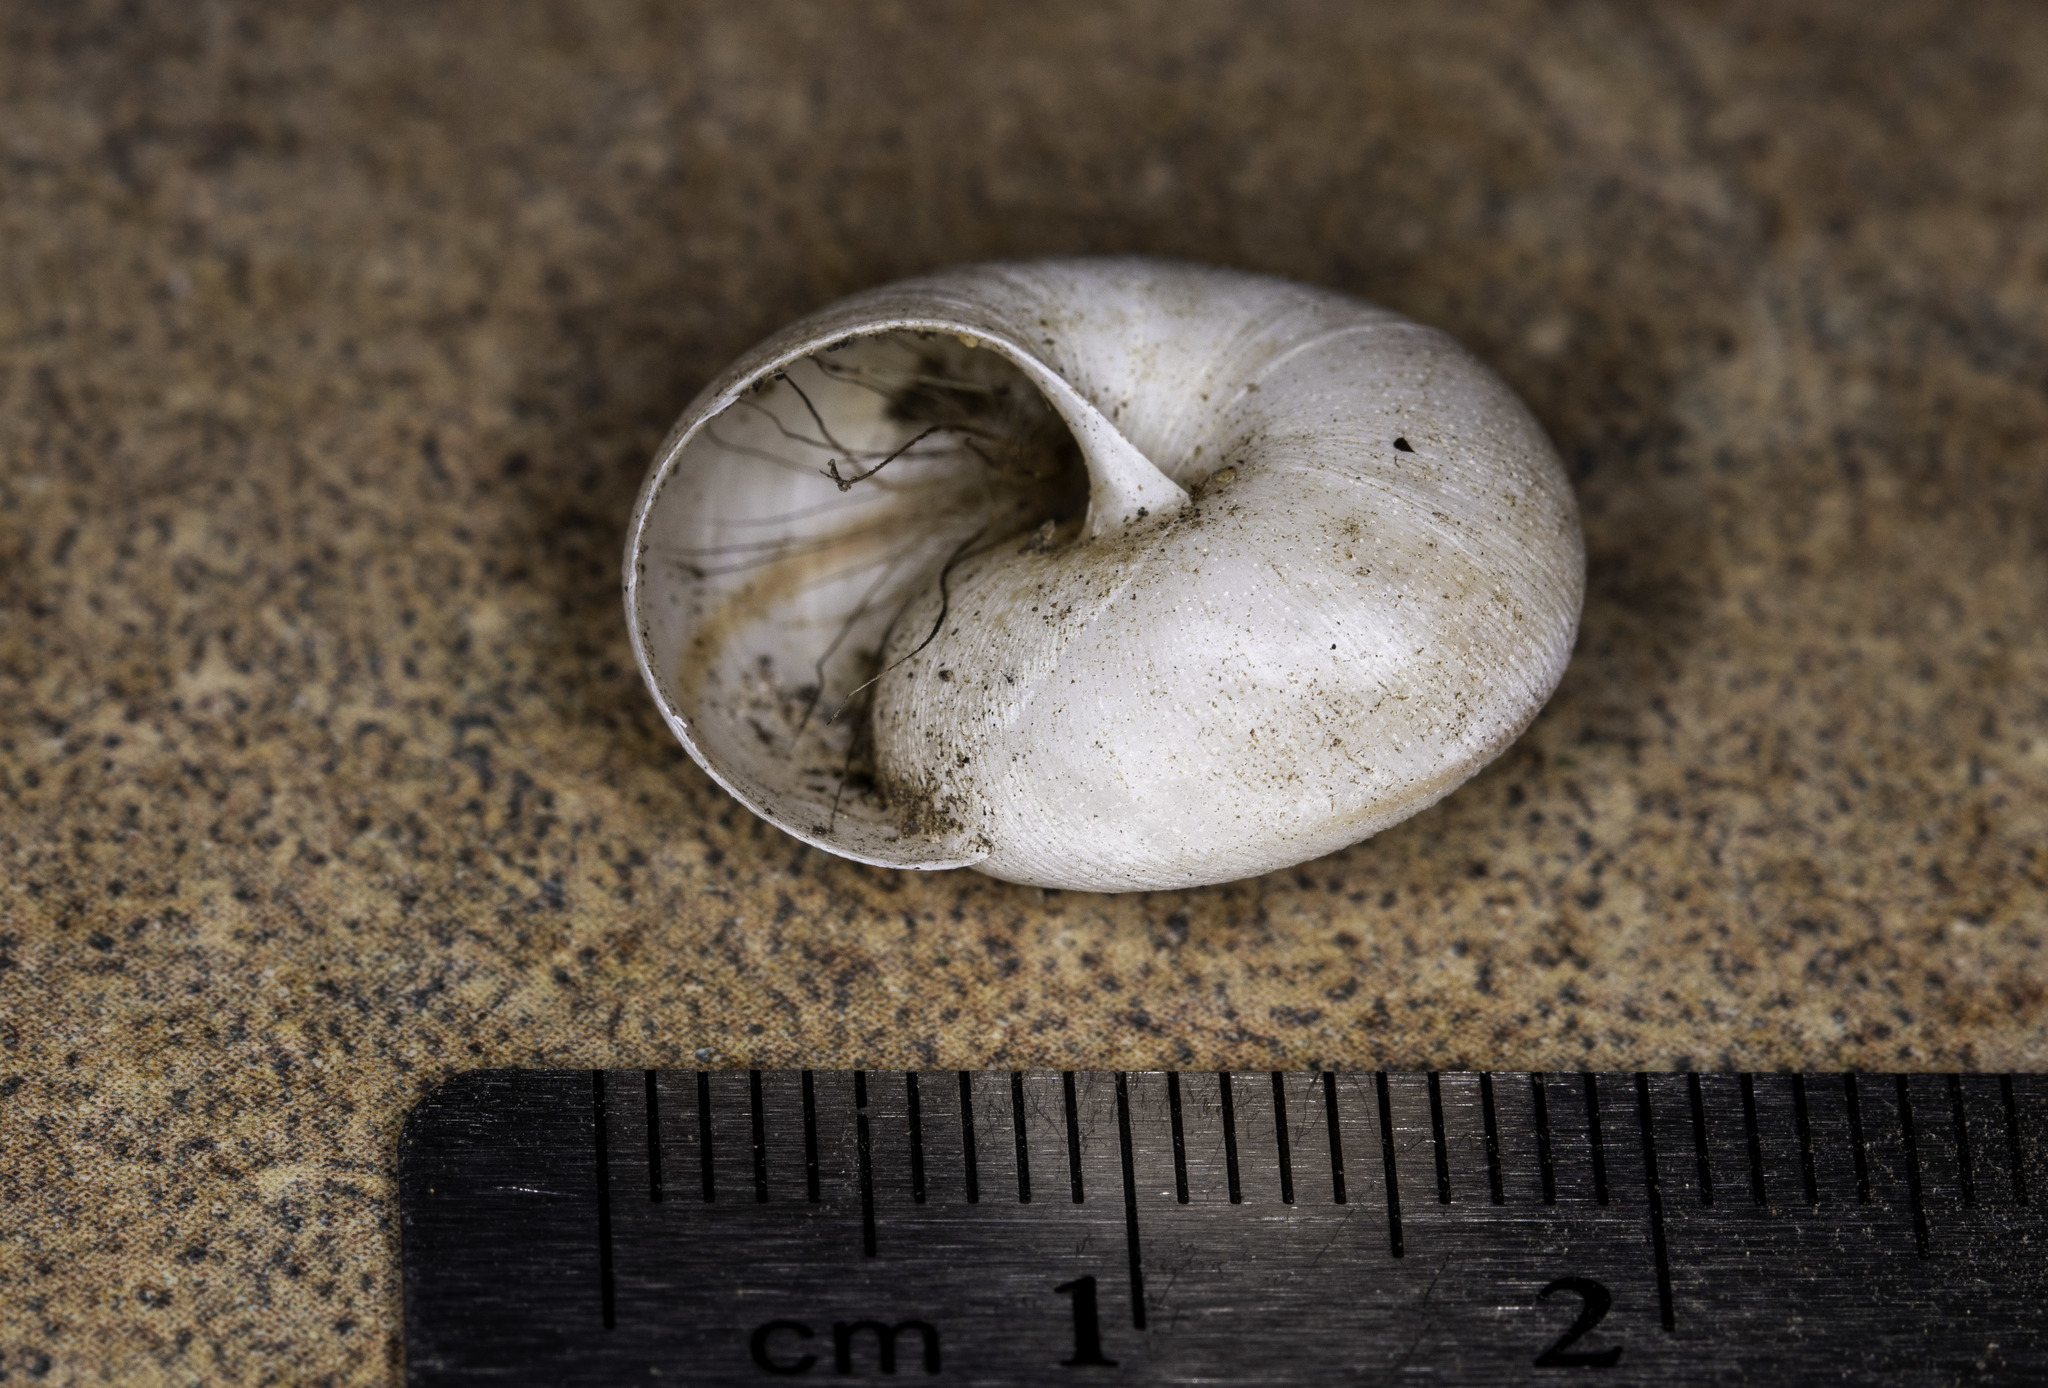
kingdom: Animalia
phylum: Mollusca
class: Gastropoda
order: Stylommatophora
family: Xanthonychidae
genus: Helminthoglypta
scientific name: Helminthoglypta morroensis
